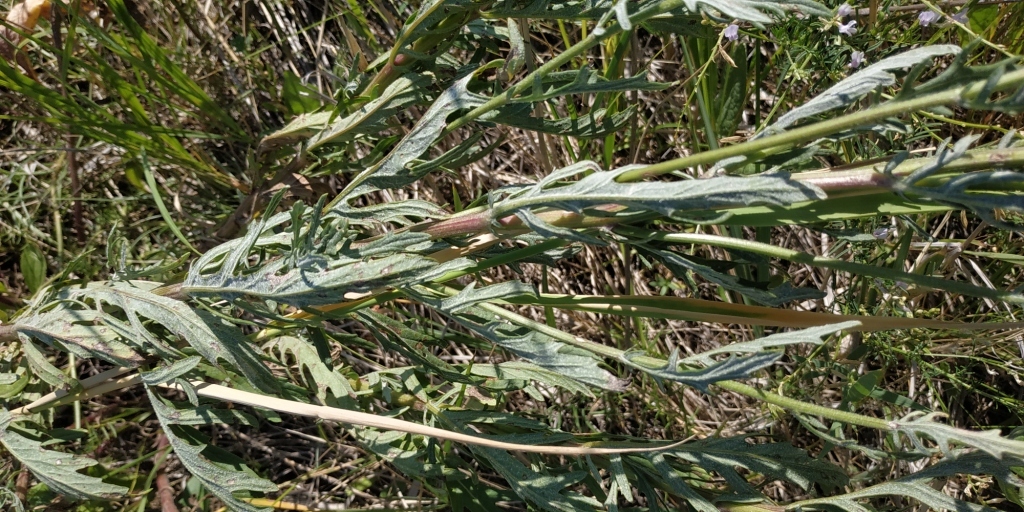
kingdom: Plantae
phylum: Tracheophyta
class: Magnoliopsida
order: Asterales
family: Asteraceae
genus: Jacobaea
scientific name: Jacobaea erucifolia
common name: Hoary ragwort
